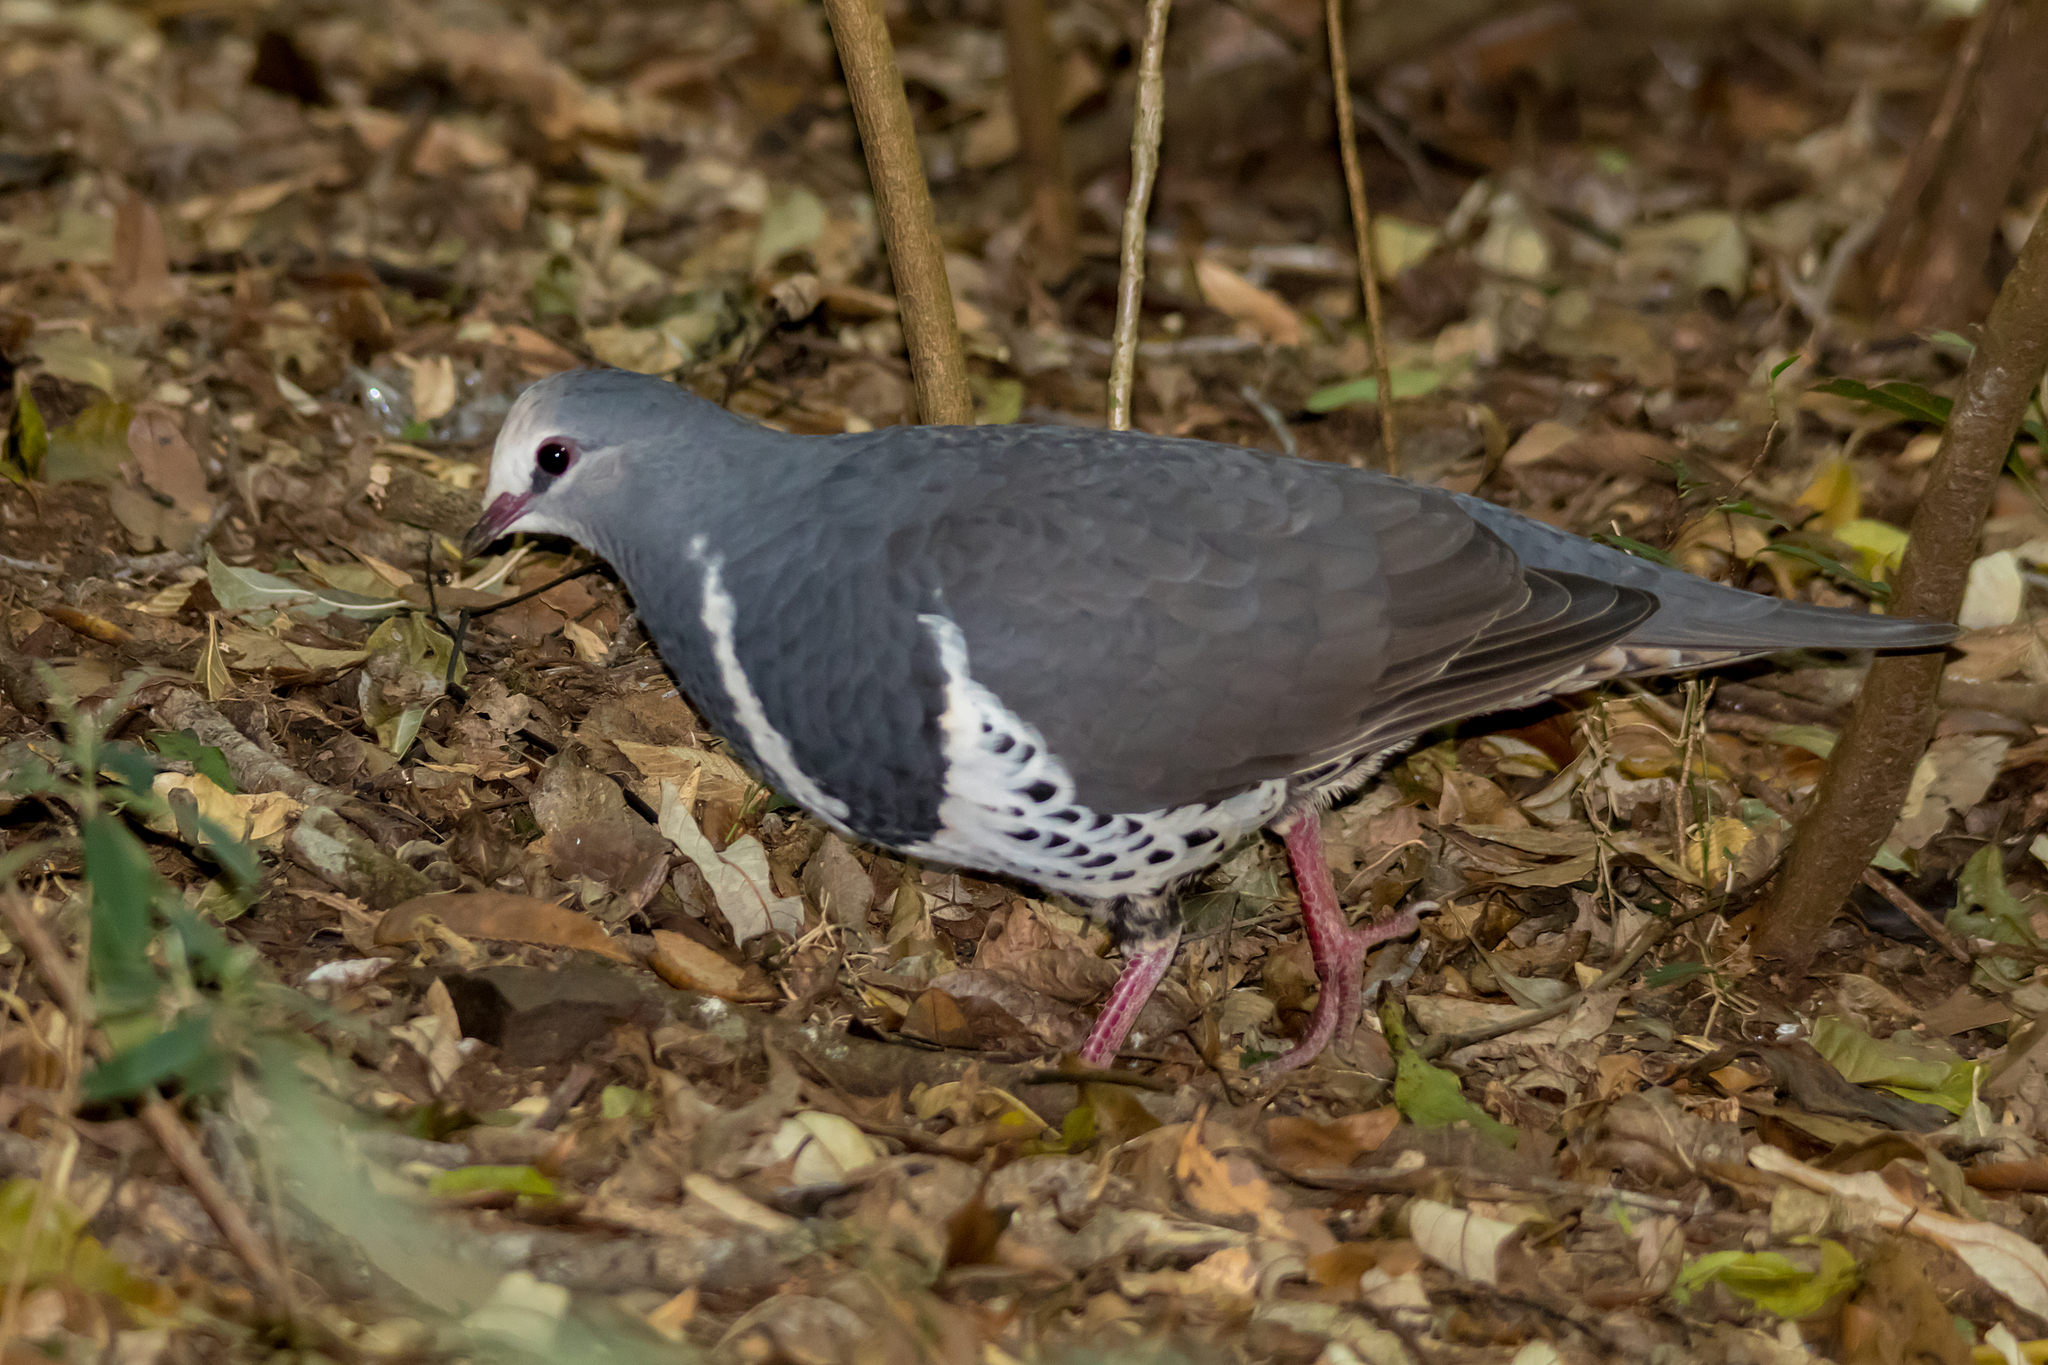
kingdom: Animalia
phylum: Chordata
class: Aves
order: Columbiformes
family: Columbidae
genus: Leucosarcia
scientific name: Leucosarcia melanoleuca
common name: Wonga pigeon
